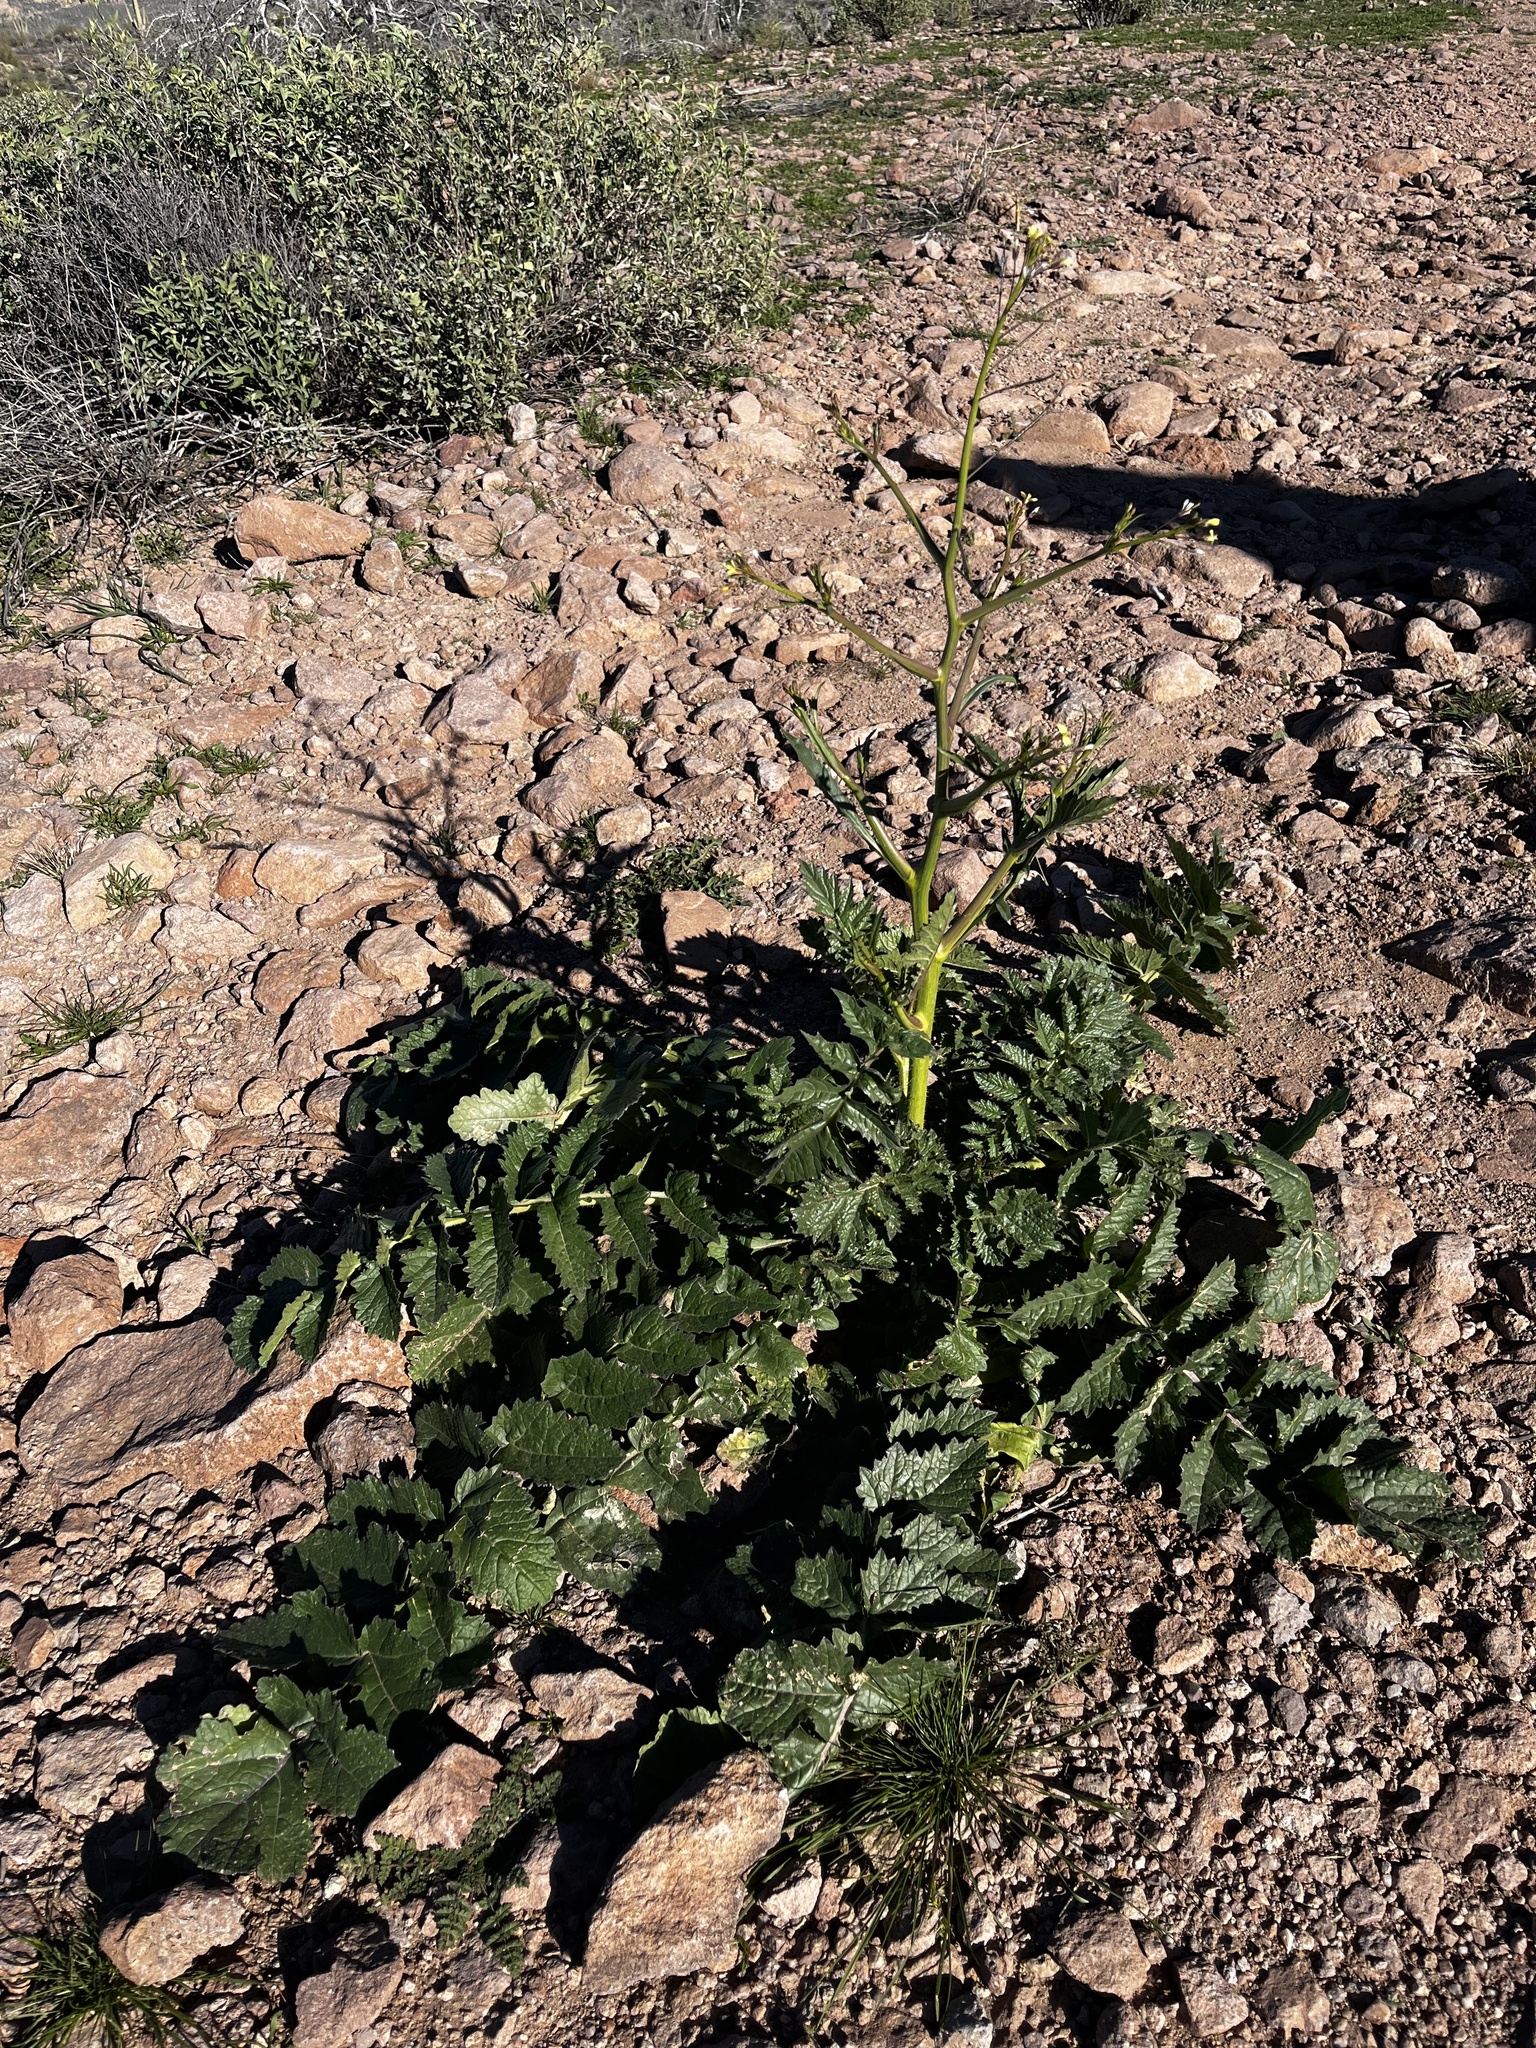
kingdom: Plantae
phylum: Tracheophyta
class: Magnoliopsida
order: Brassicales
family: Brassicaceae
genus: Brassica
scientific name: Brassica tournefortii
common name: Pale cabbage
